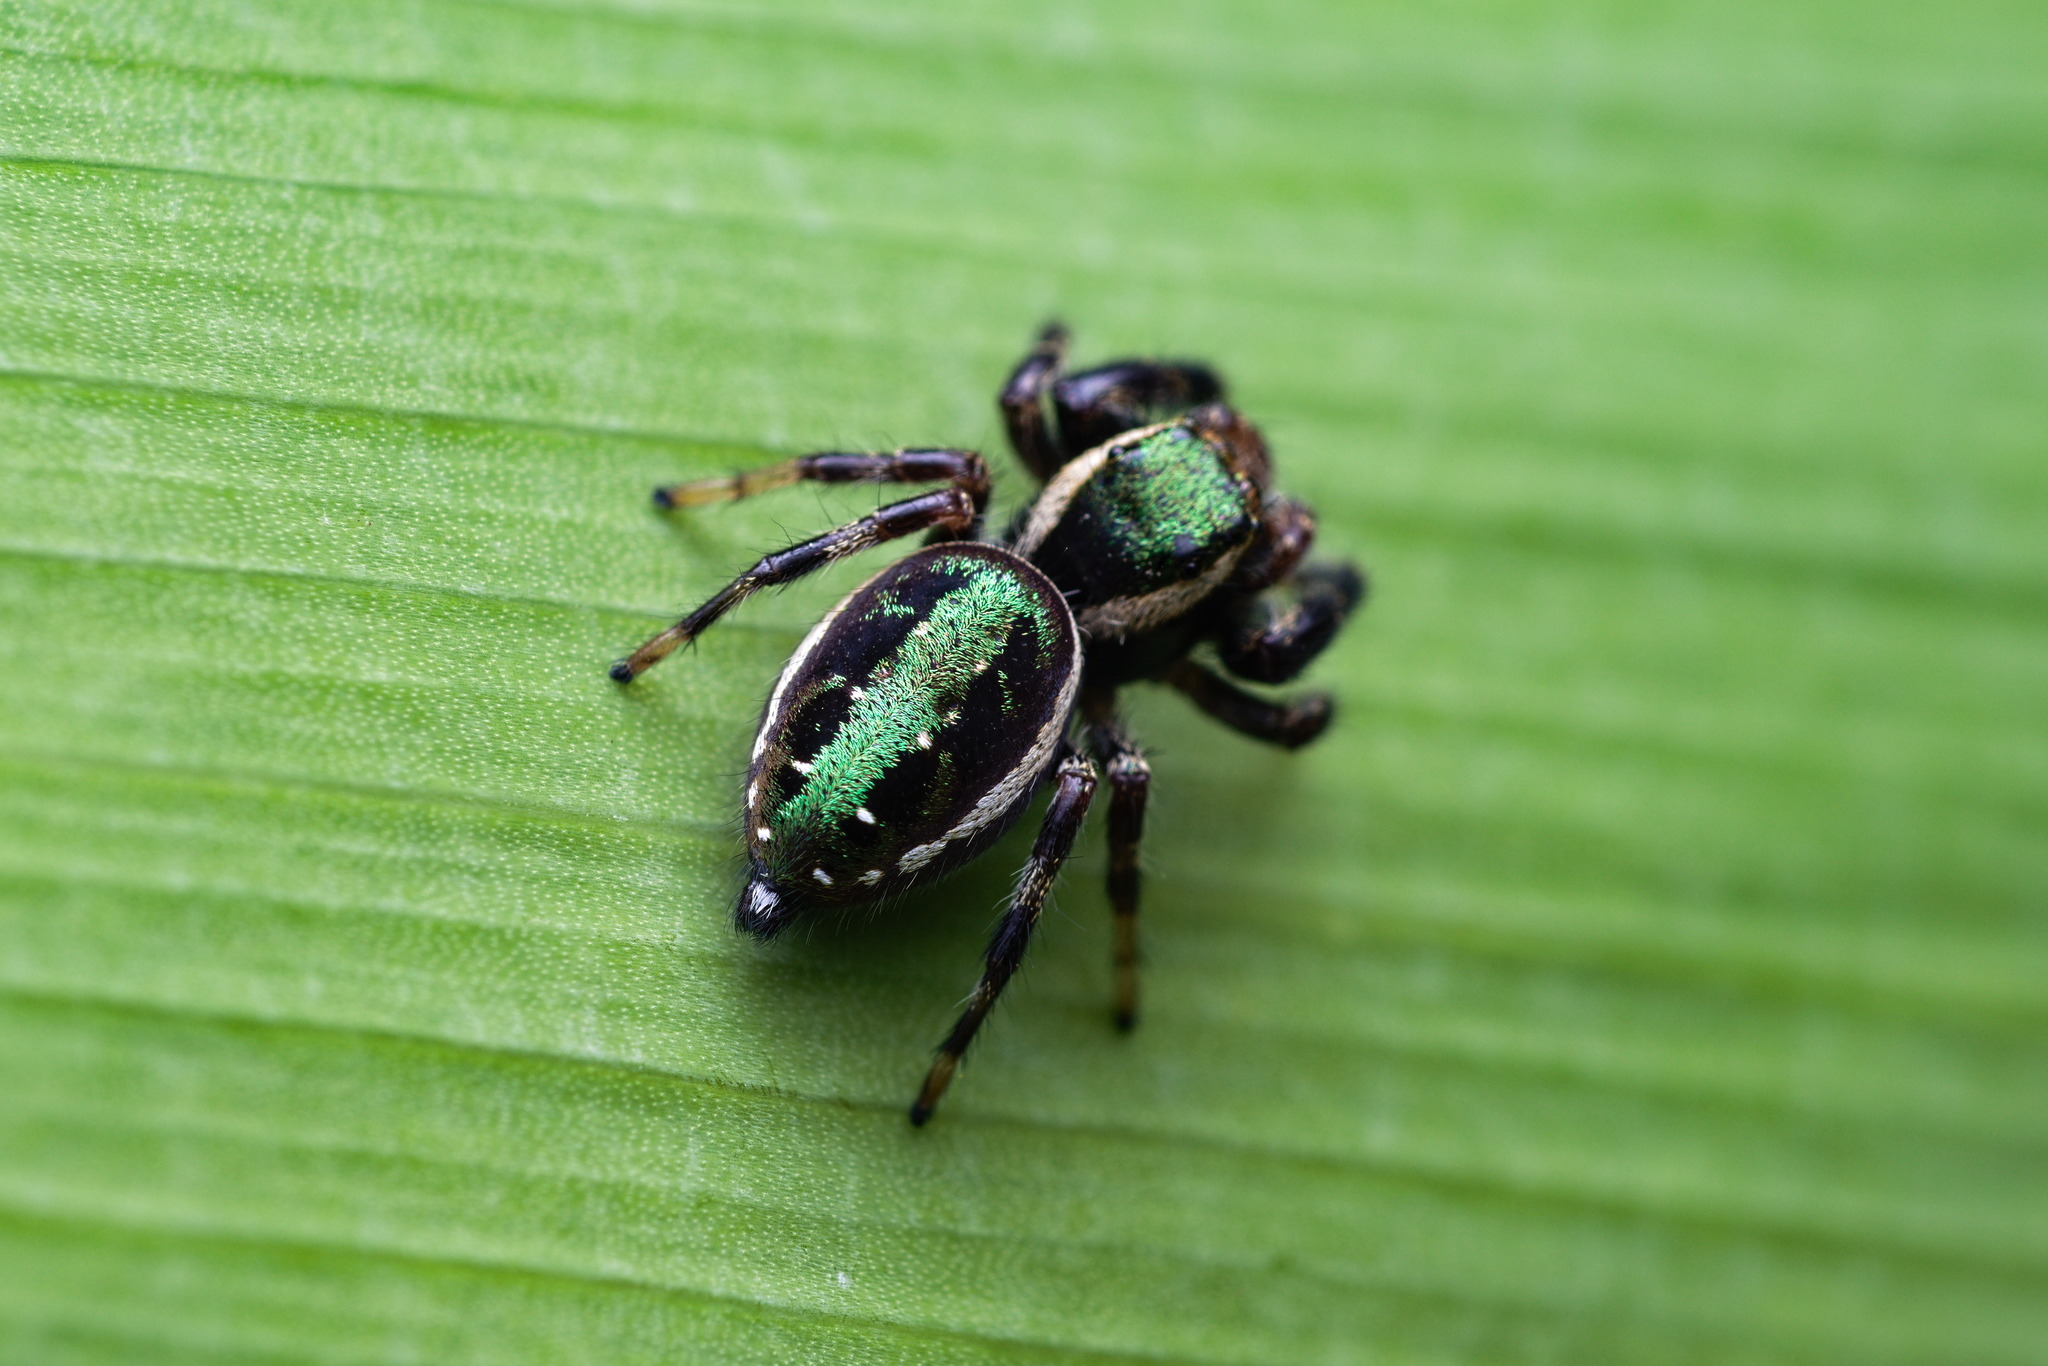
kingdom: Animalia
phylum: Arthropoda
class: Arachnida
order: Araneae
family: Salticidae
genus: Paraphidippus
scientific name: Paraphidippus aurantius
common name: Jumping spiders
